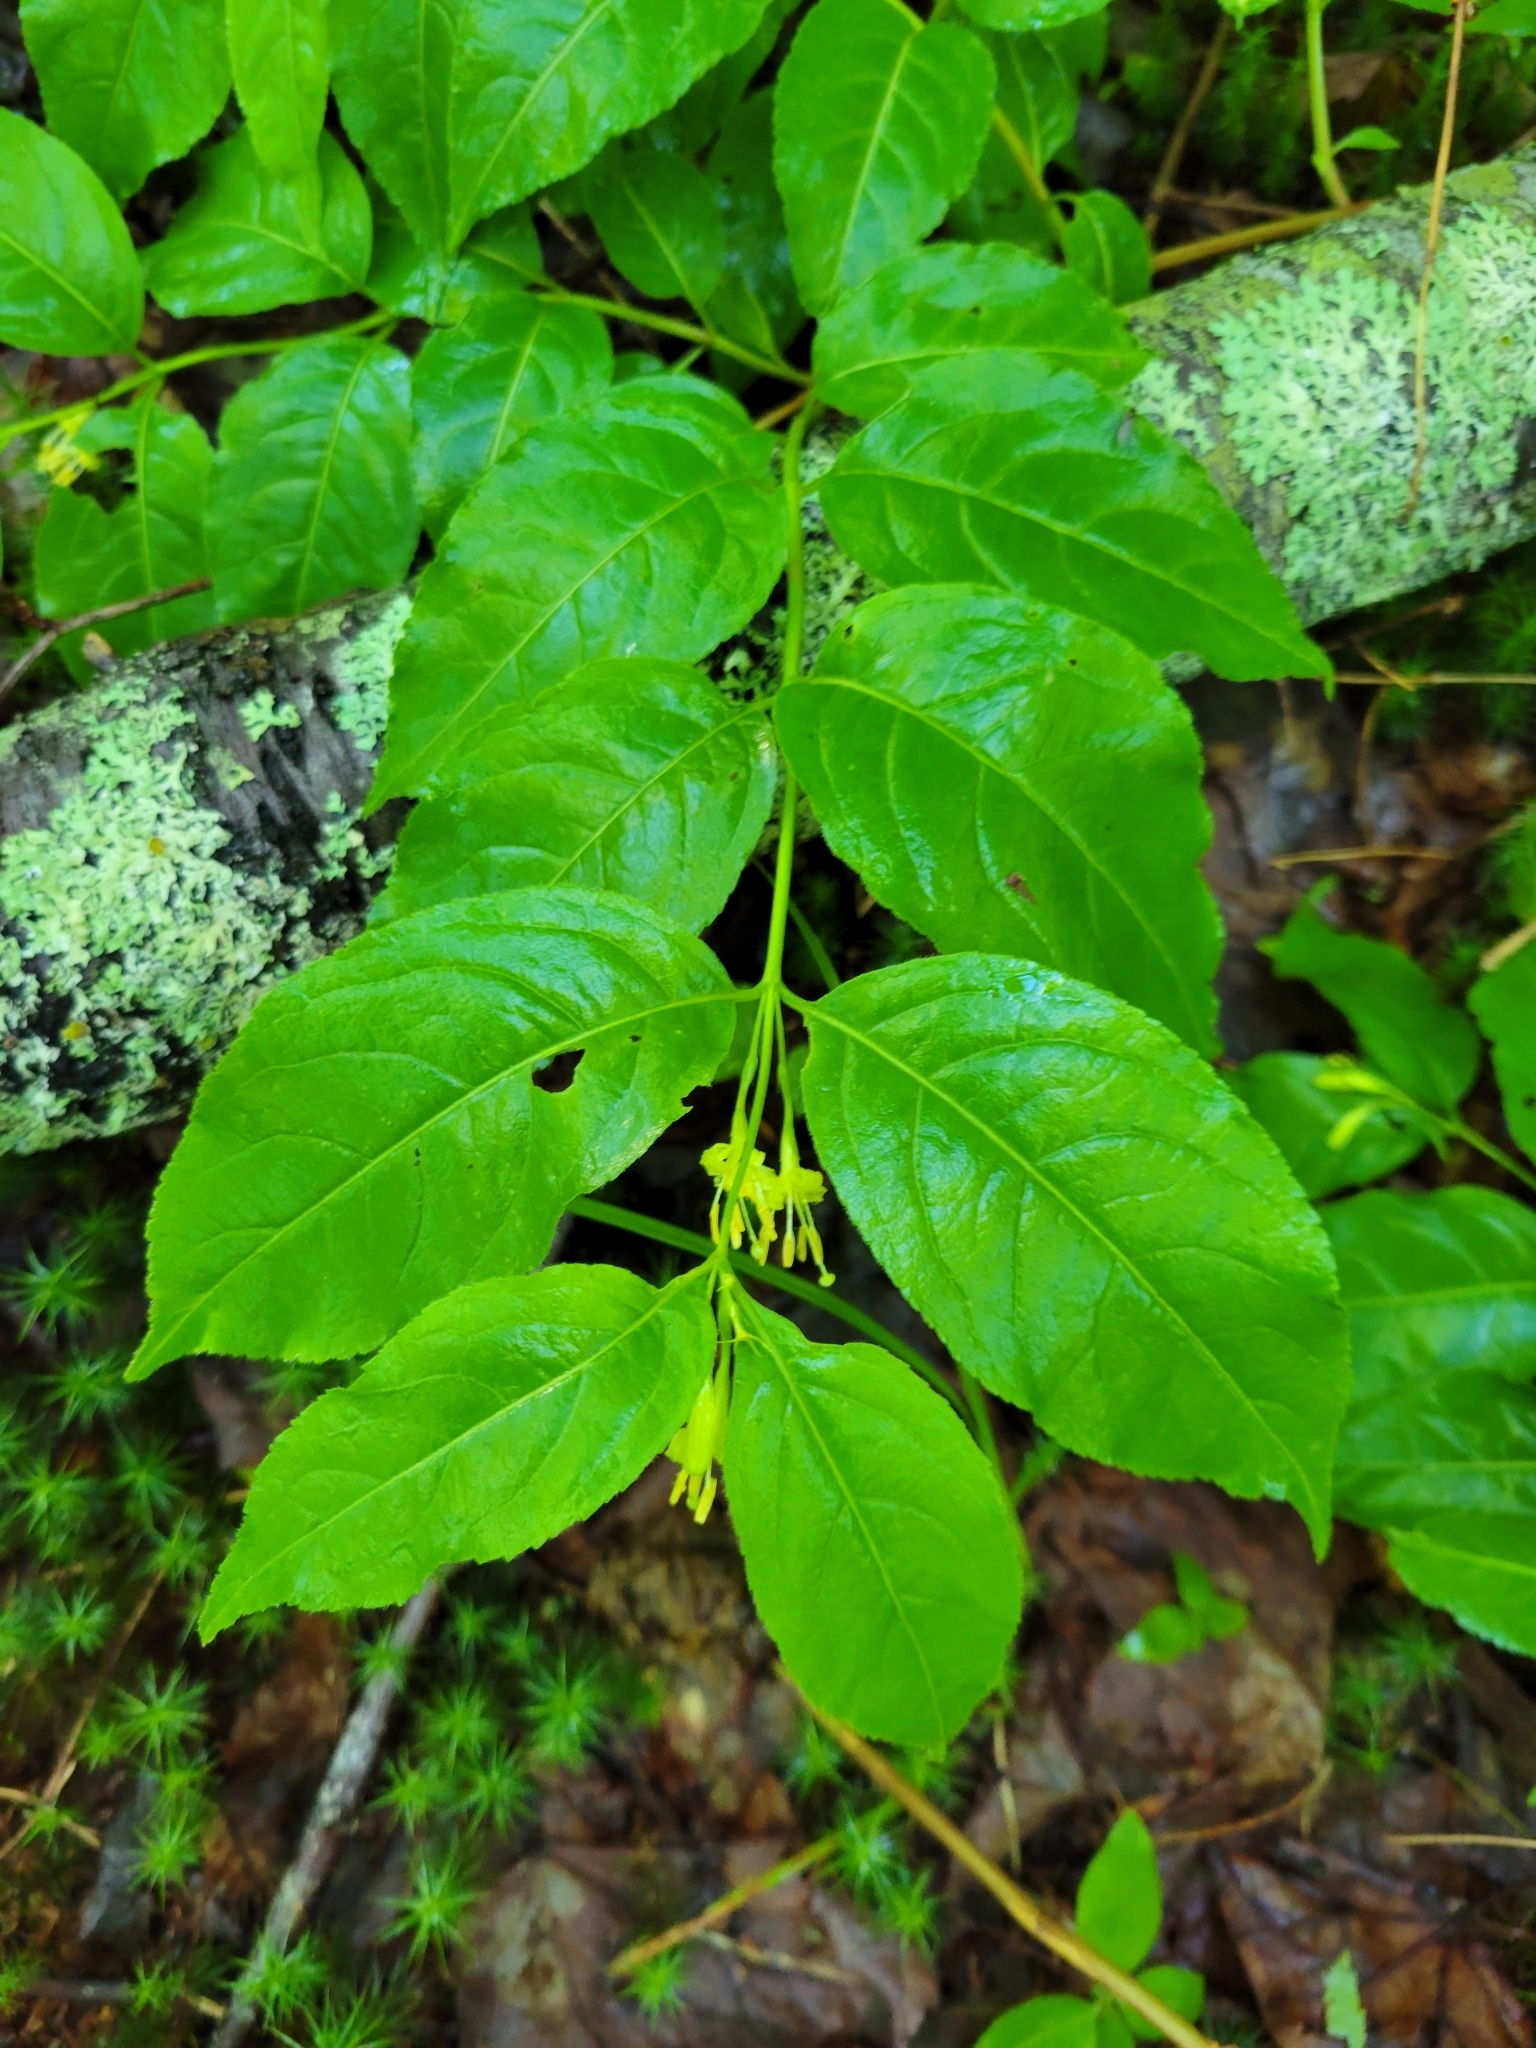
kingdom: Plantae
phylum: Tracheophyta
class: Magnoliopsida
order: Dipsacales
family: Caprifoliaceae
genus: Diervilla
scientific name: Diervilla lonicera
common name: Bush-honeysuckle
